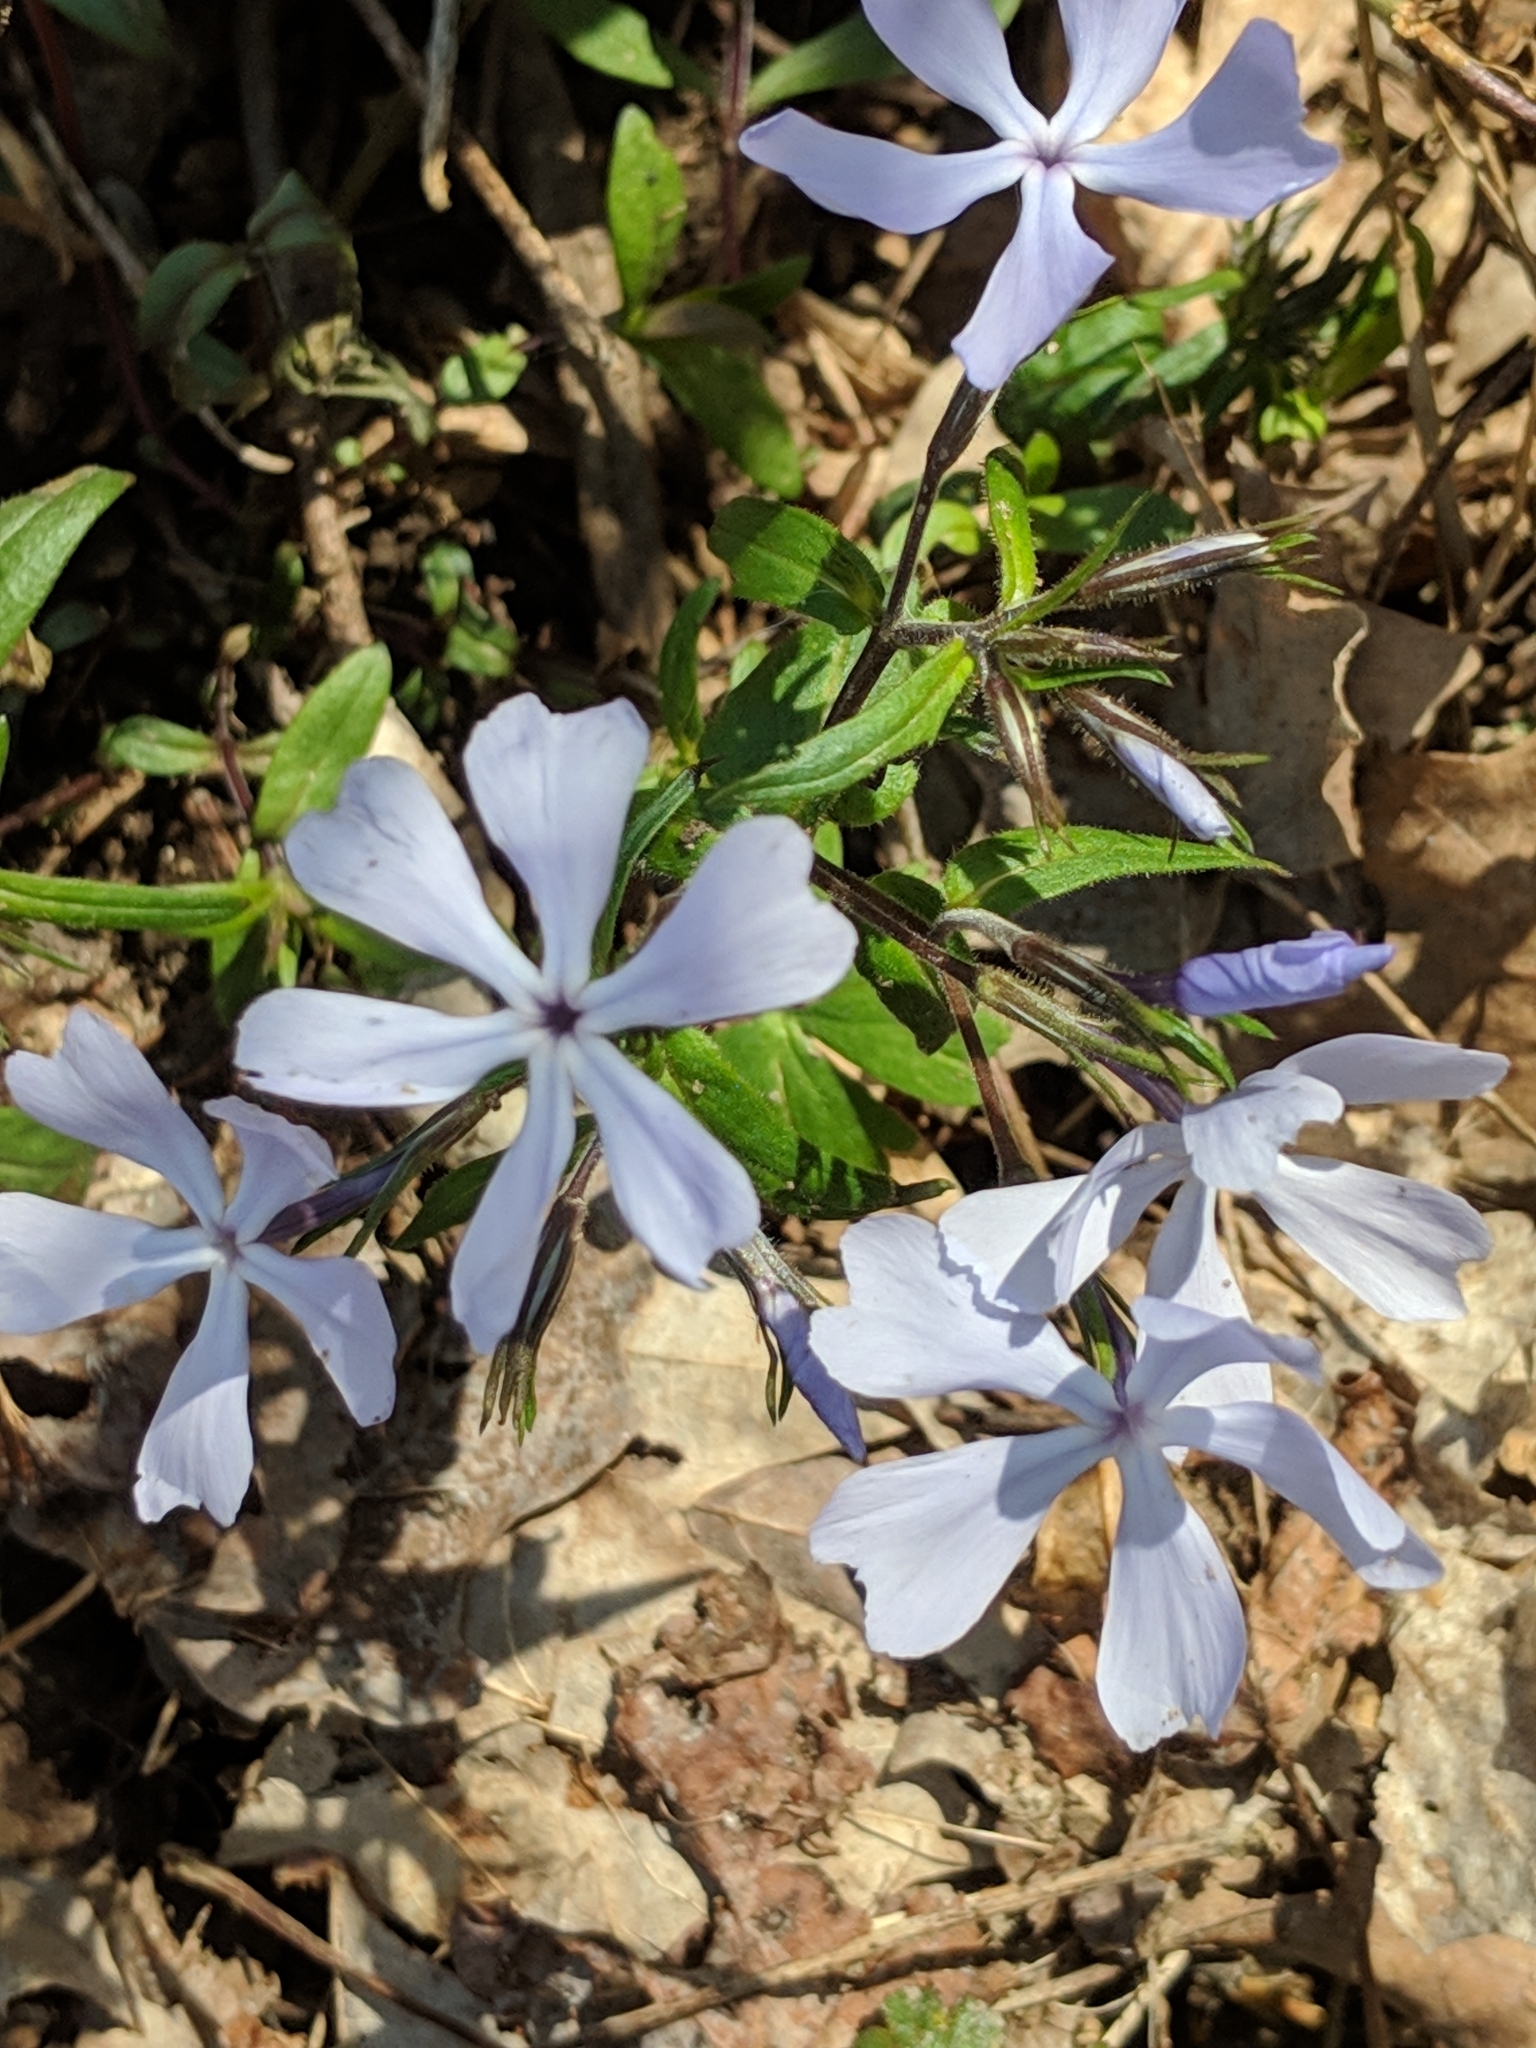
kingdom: Plantae
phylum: Tracheophyta
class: Magnoliopsida
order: Ericales
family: Polemoniaceae
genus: Phlox
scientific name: Phlox divaricata
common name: Blue phlox
